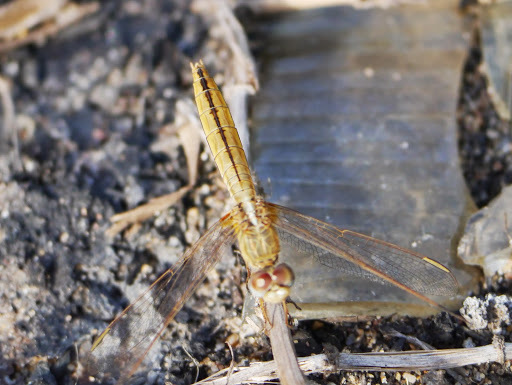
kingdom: Animalia
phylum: Arthropoda
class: Insecta
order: Odonata
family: Libellulidae
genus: Crocothemis
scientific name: Crocothemis erythraea
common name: Scarlet dragonfly
